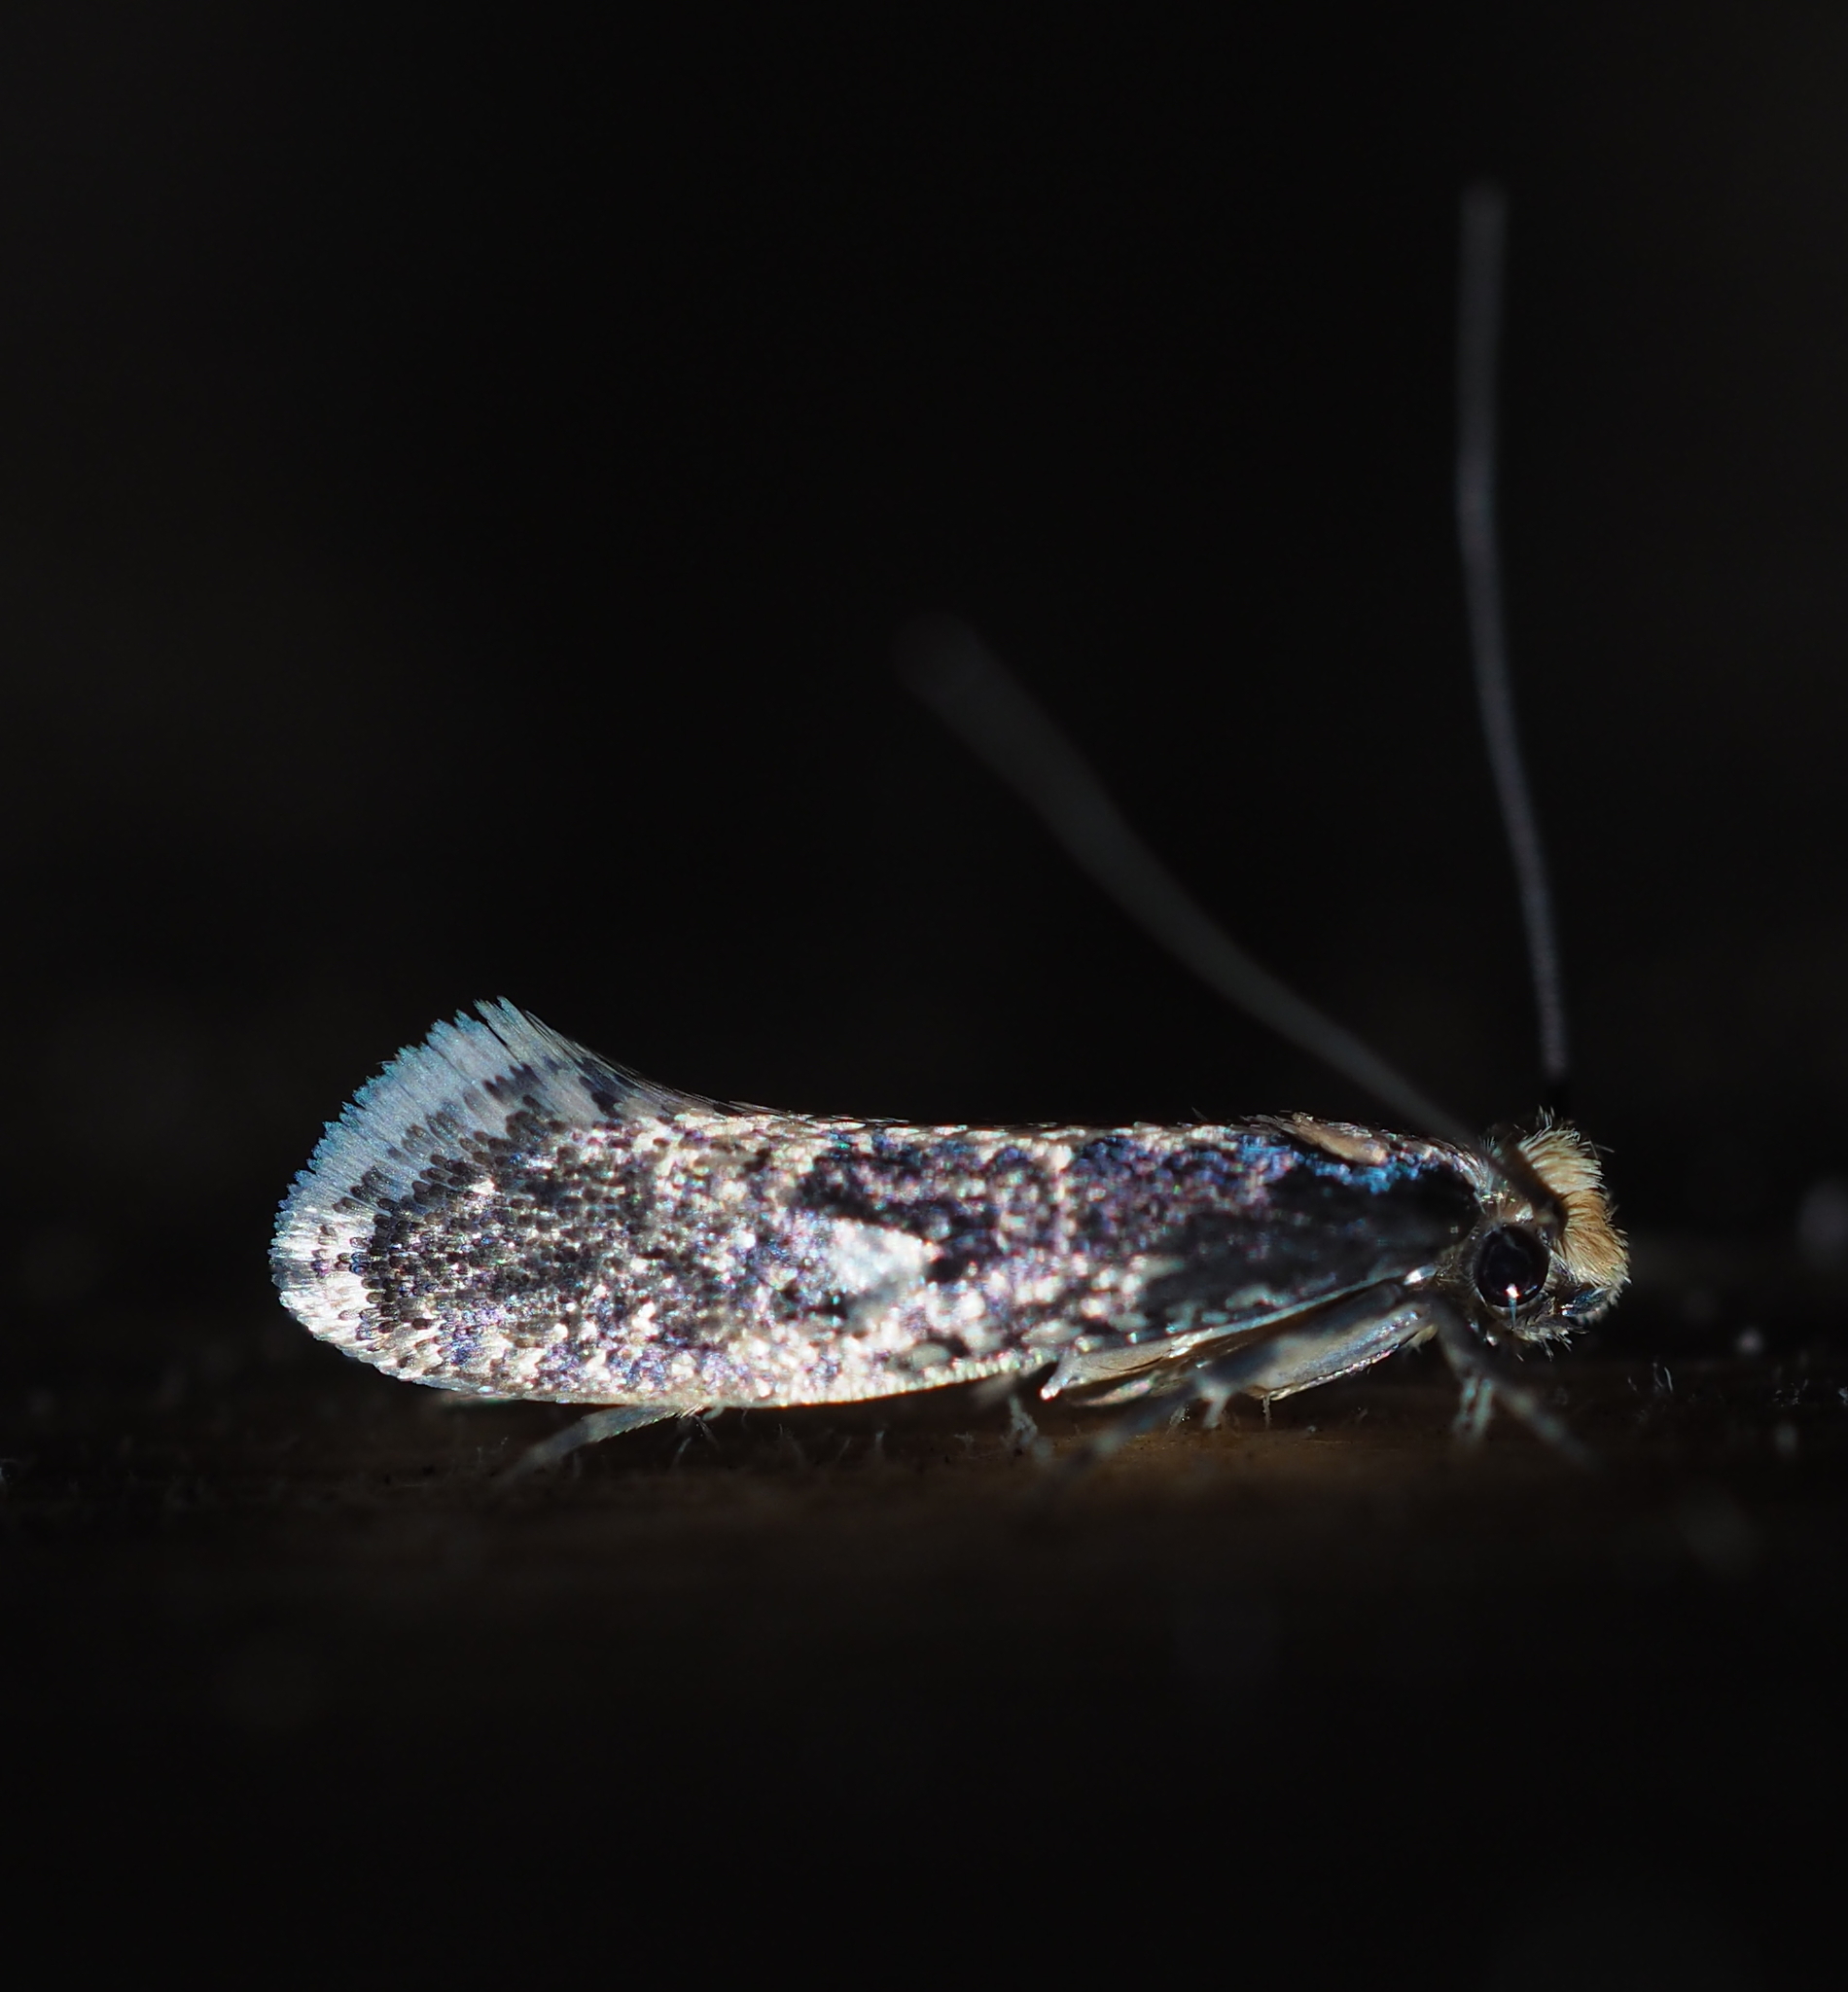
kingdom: Animalia
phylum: Arthropoda
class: Insecta
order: Lepidoptera
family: Tineidae
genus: Monopis
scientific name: Monopis crocicapitella
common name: Moth
